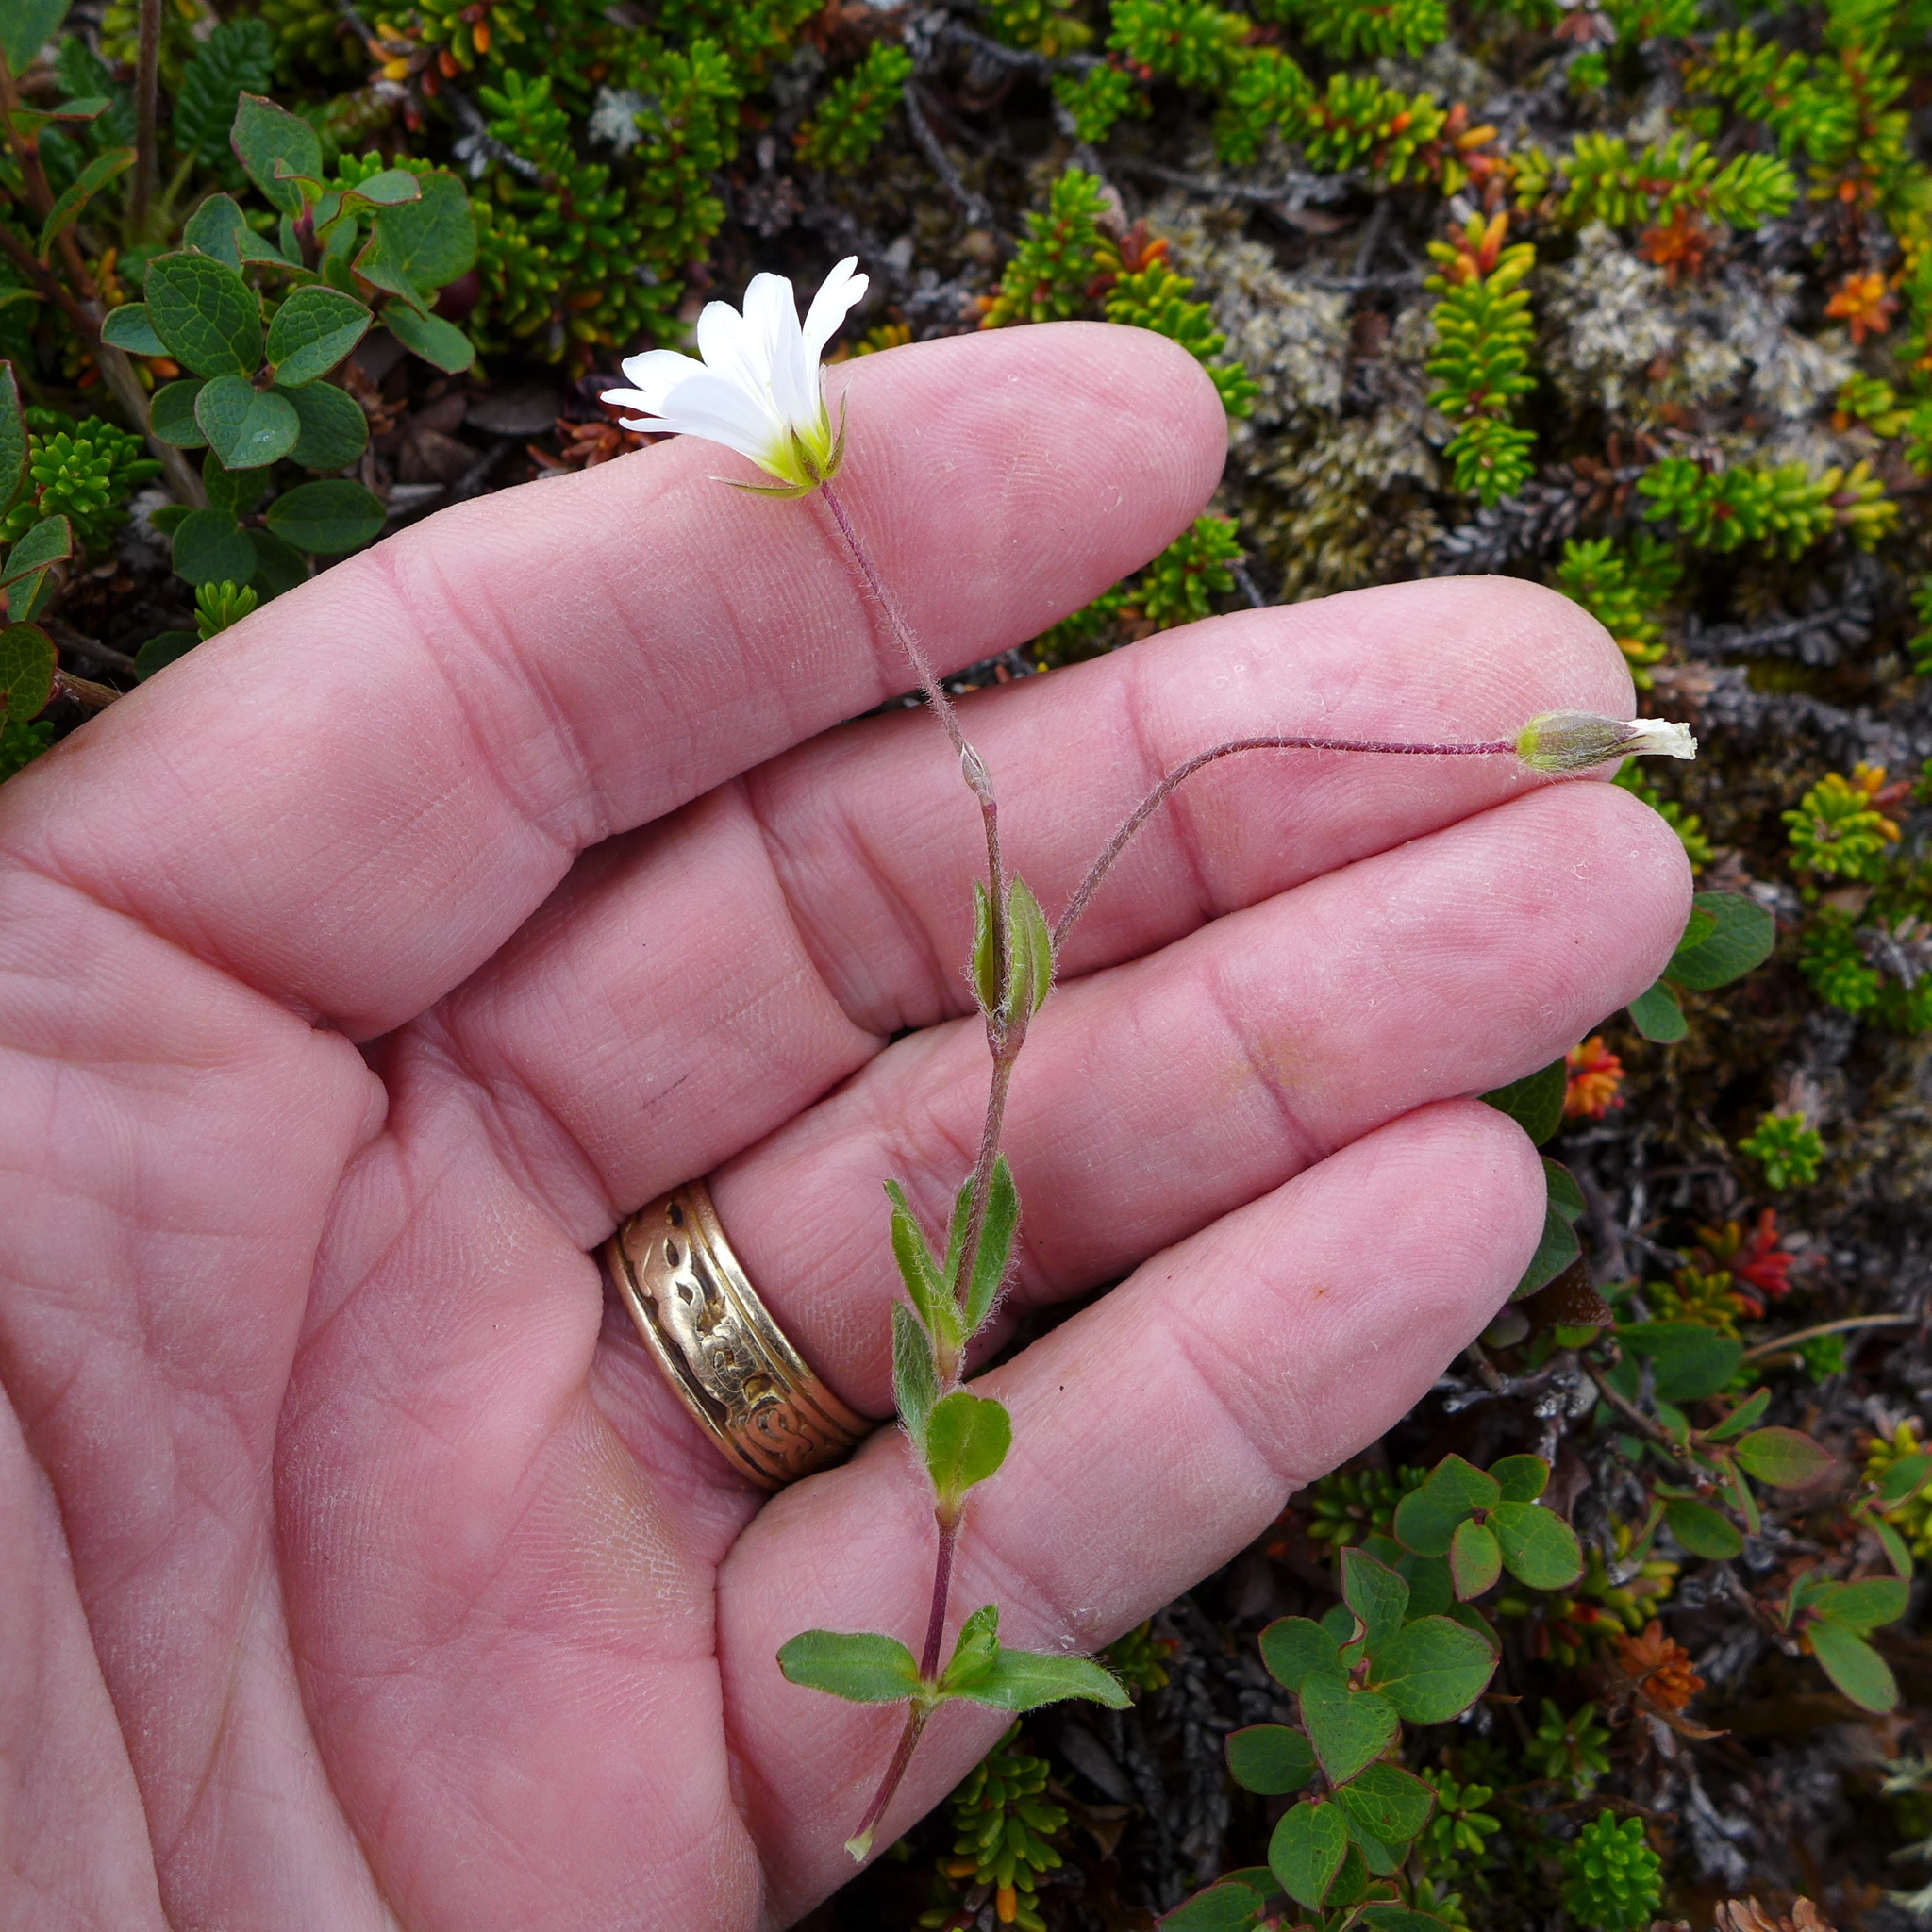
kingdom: Plantae
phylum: Tracheophyta
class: Magnoliopsida
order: Caryophyllales
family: Caryophyllaceae
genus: Cerastium
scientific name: Cerastium alpinum
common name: Alpine mouse-ear
